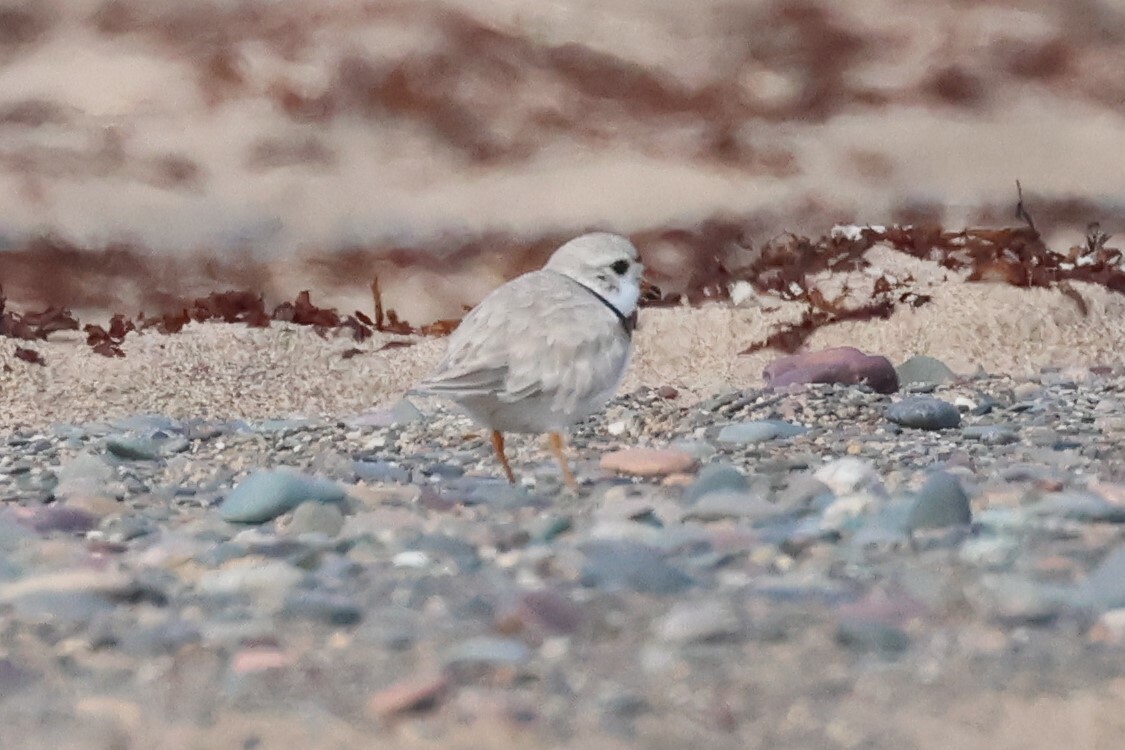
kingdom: Animalia
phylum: Chordata
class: Aves
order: Charadriiformes
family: Charadriidae
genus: Charadrius
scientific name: Charadrius melodus
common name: Piping plover
